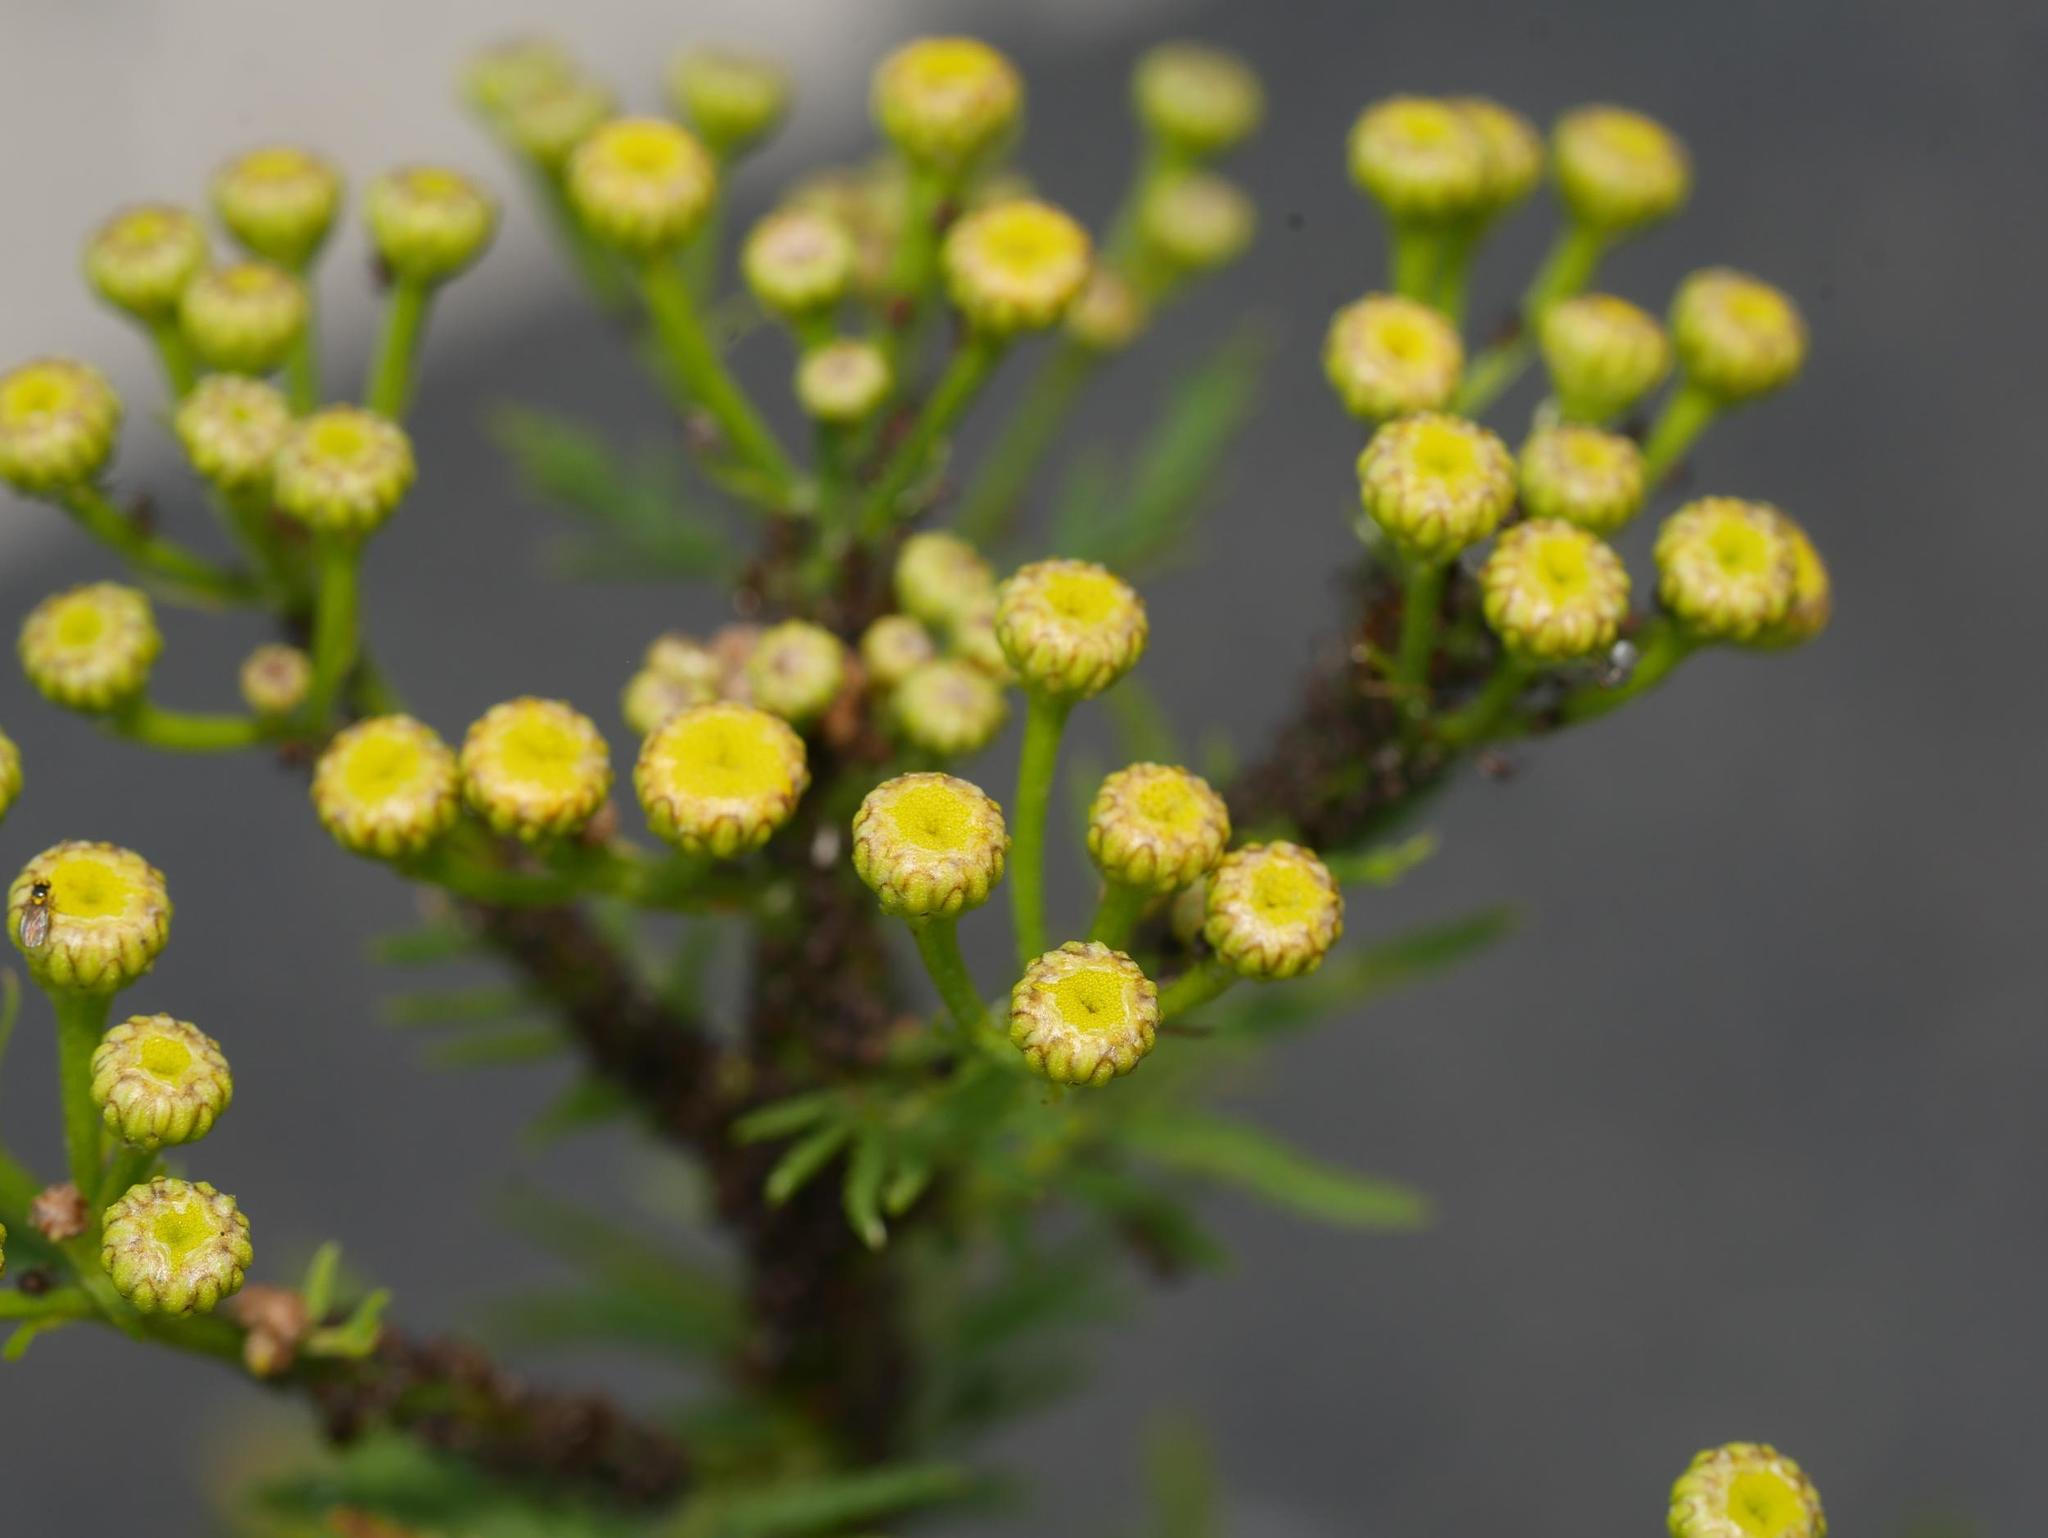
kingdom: Plantae
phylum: Tracheophyta
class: Magnoliopsida
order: Asterales
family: Asteraceae
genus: Tanacetum
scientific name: Tanacetum vulgare
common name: Common tansy
